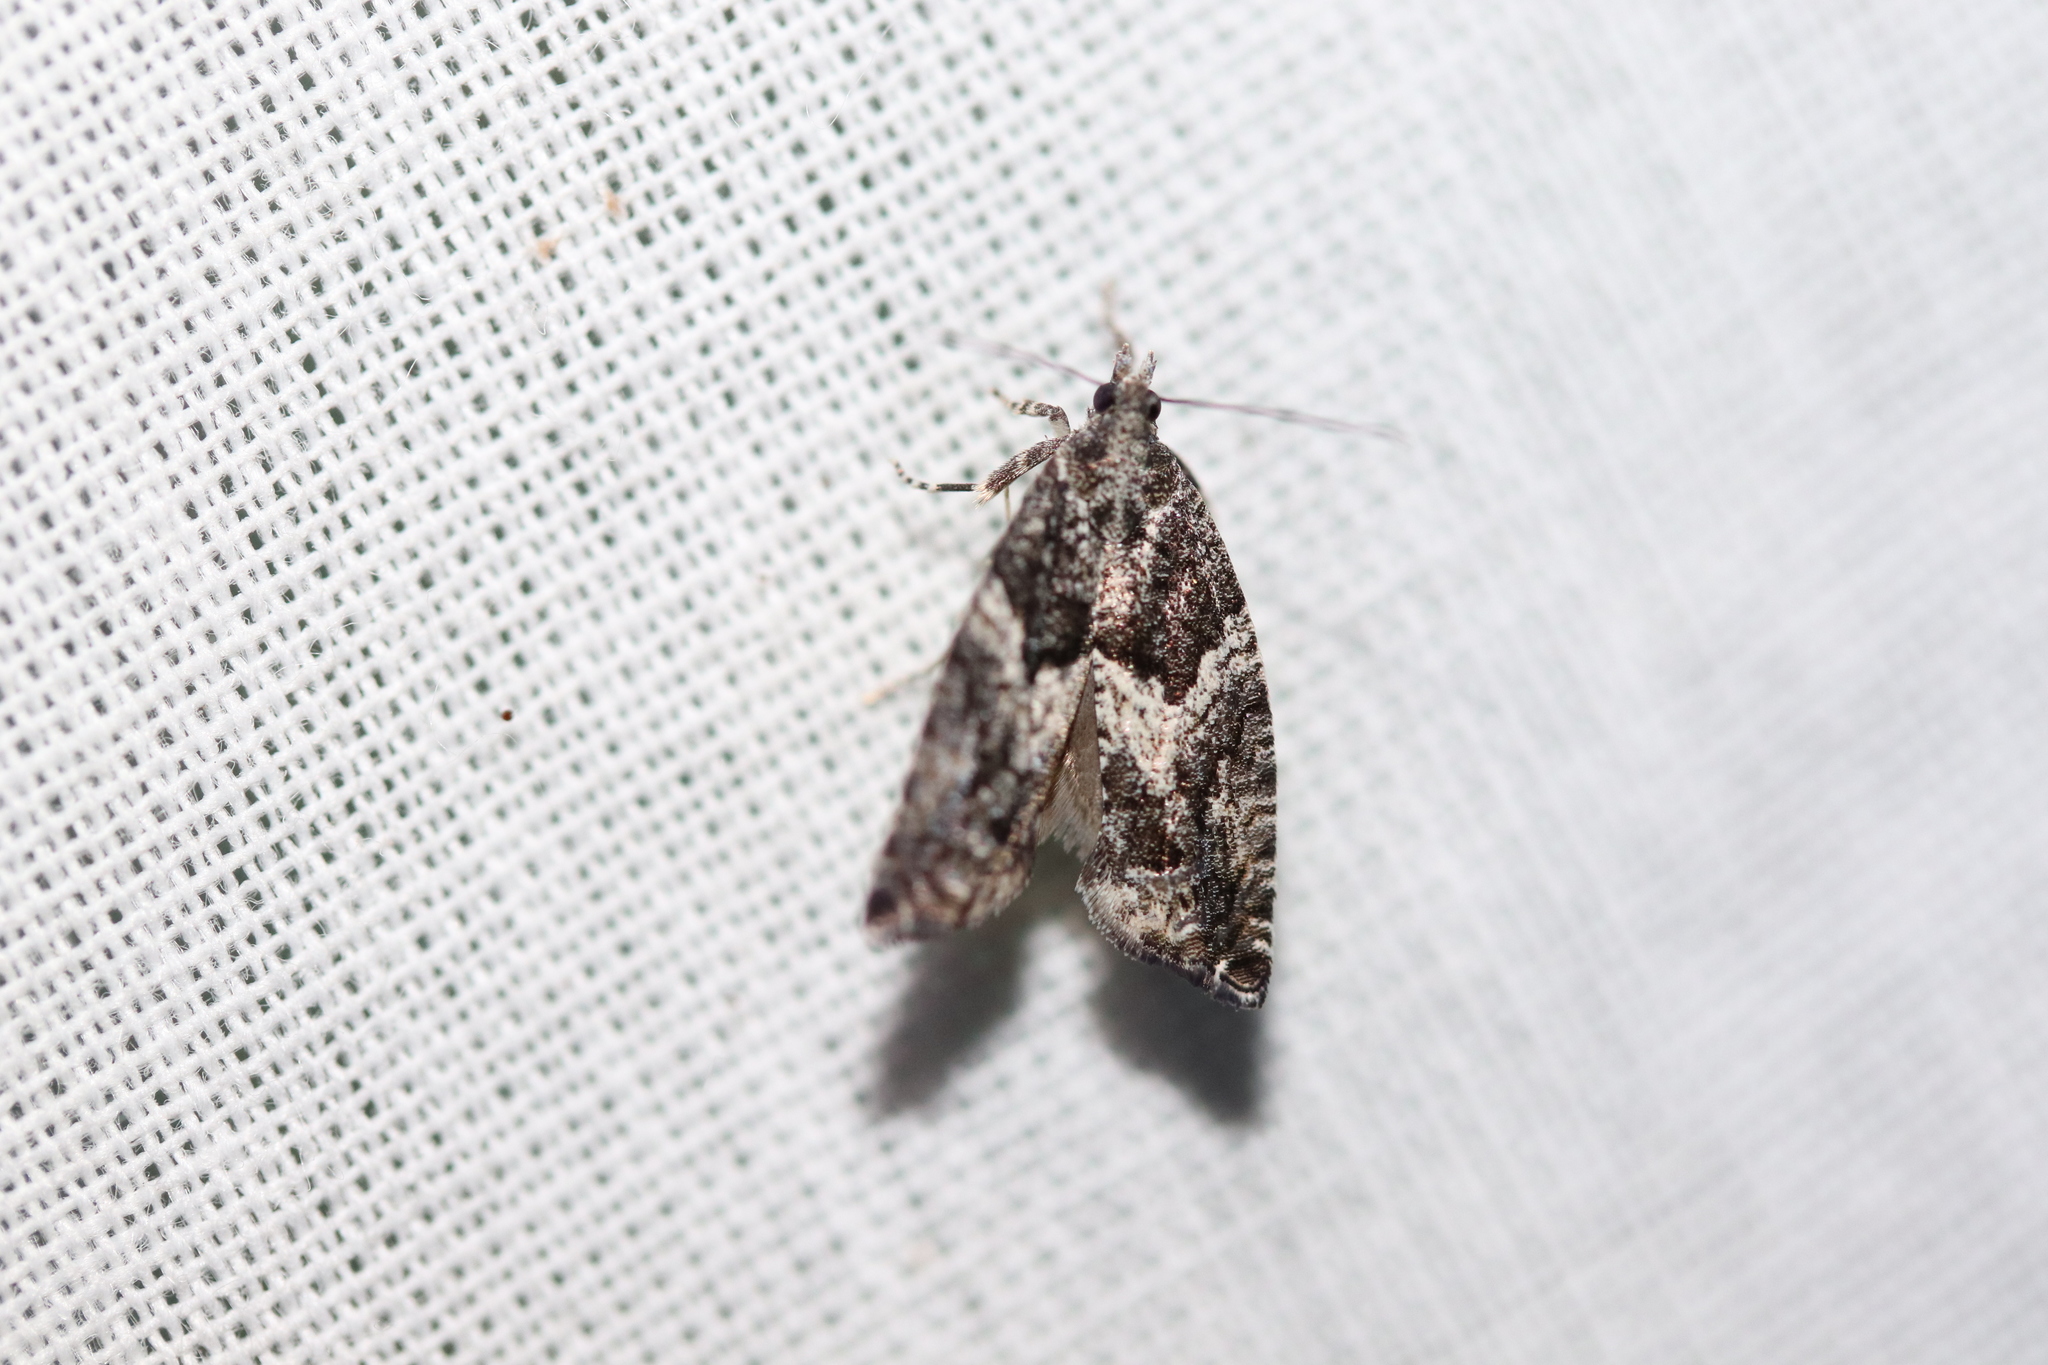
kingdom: Animalia
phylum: Arthropoda
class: Insecta
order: Lepidoptera
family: Tortricidae
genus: Epinotia
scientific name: Epinotia nisella
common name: Grey poplar bell
